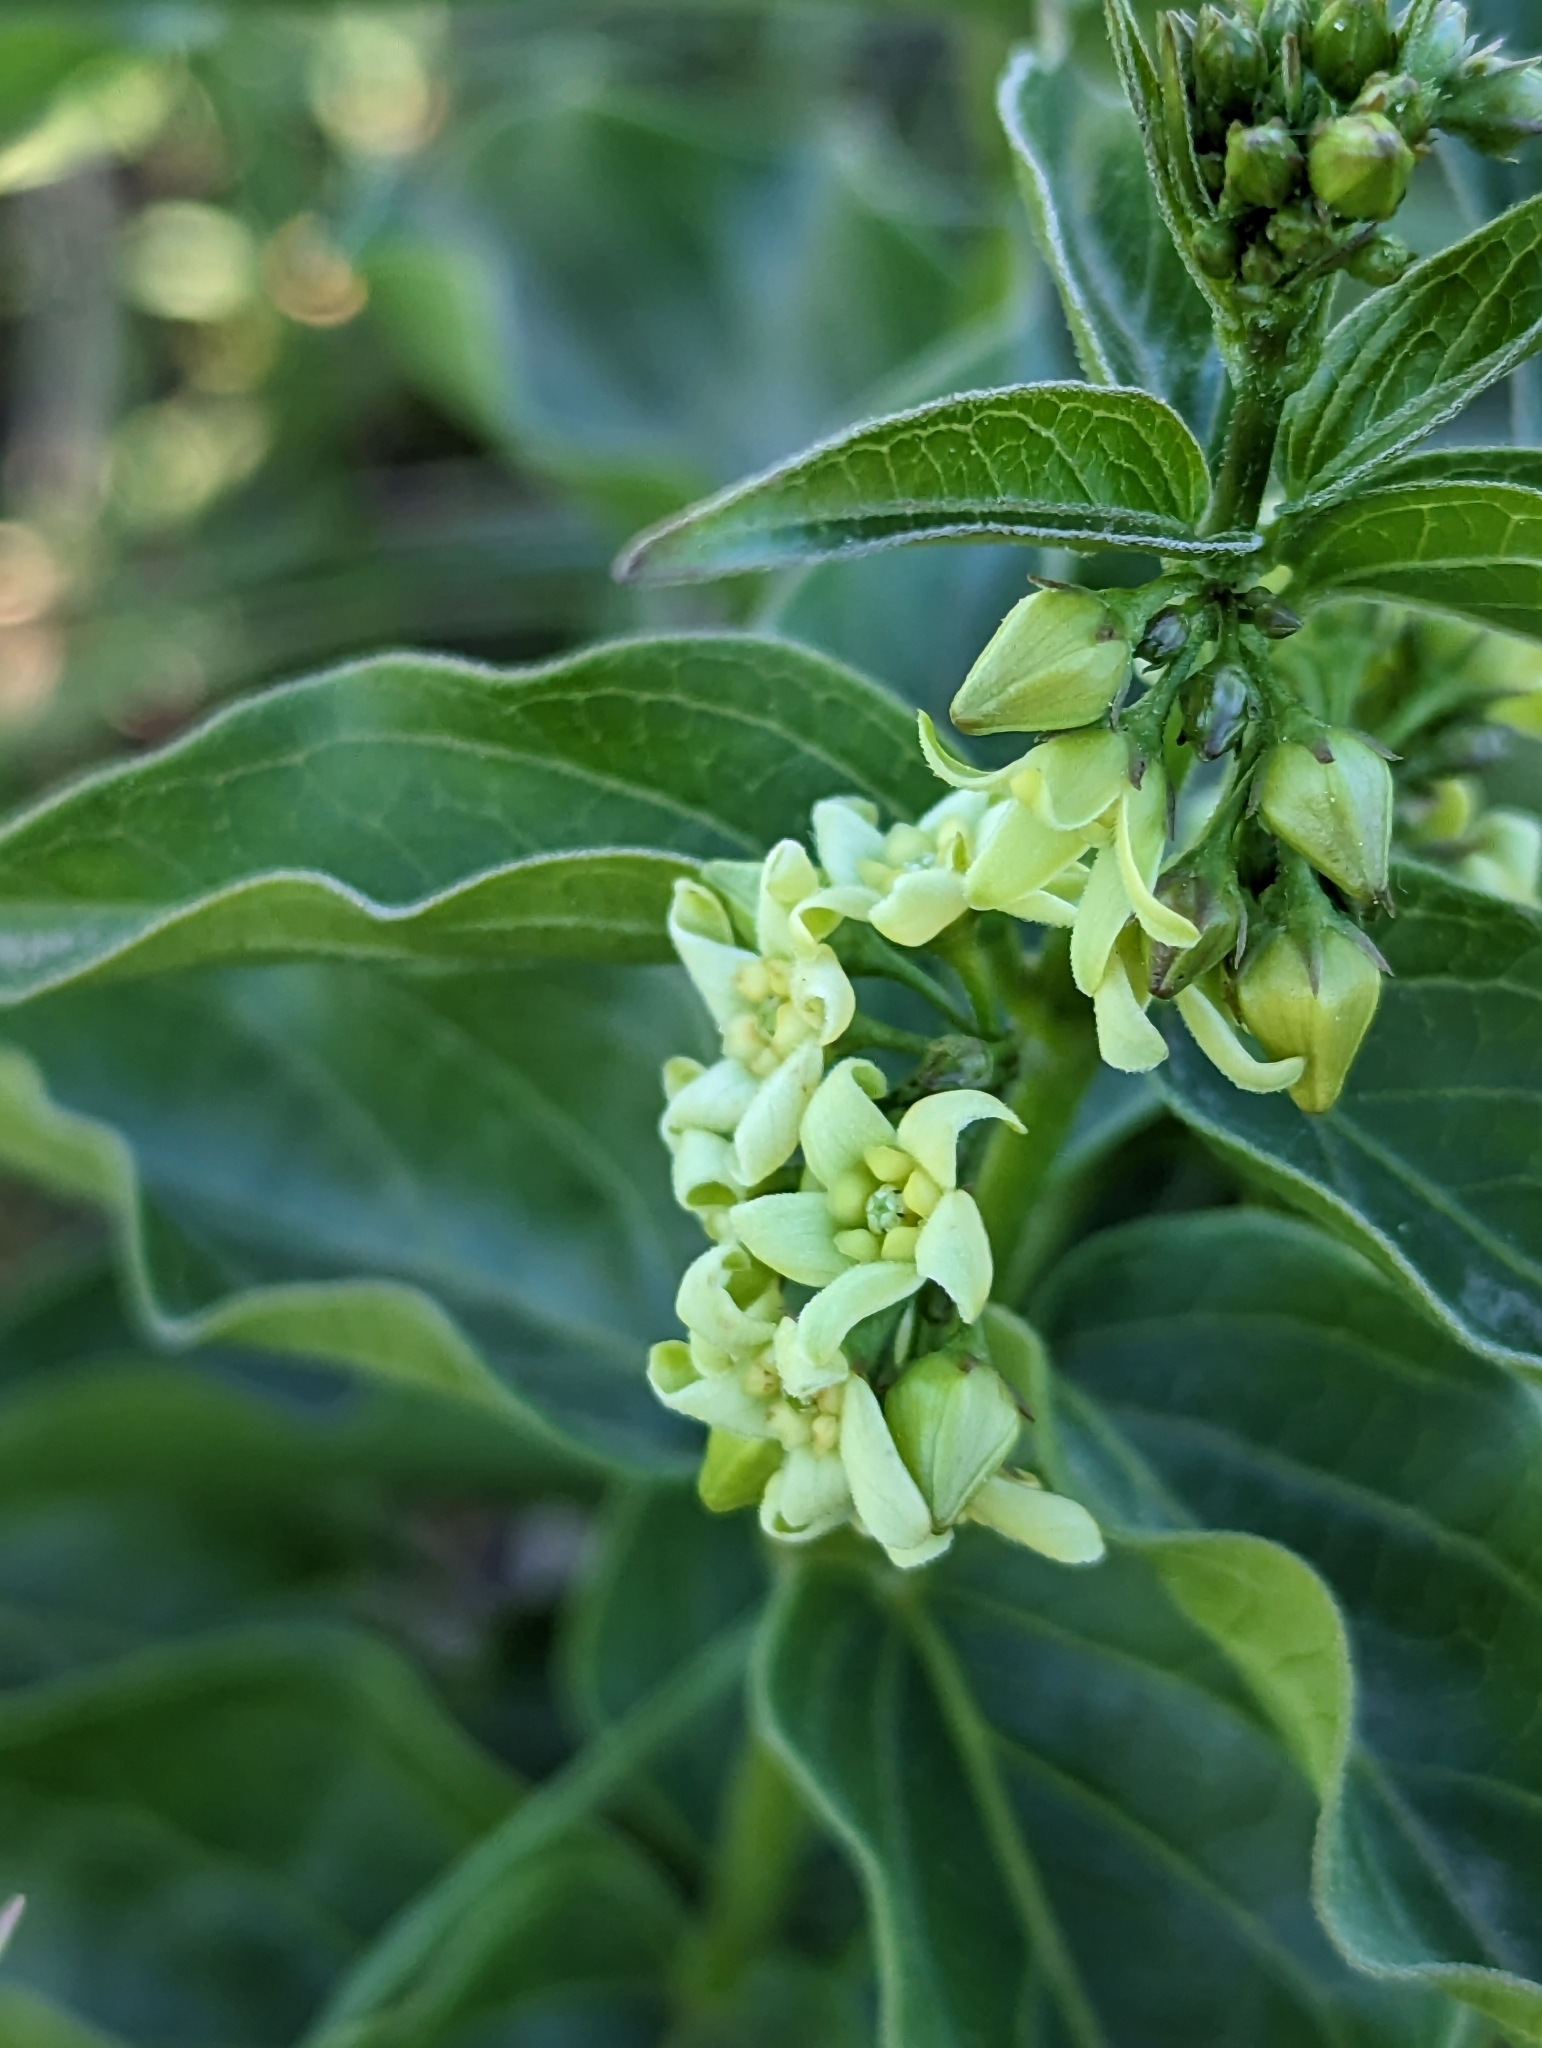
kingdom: Plantae
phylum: Tracheophyta
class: Magnoliopsida
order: Gentianales
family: Apocynaceae
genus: Vincetoxicum
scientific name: Vincetoxicum hirundinaria
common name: White swallowwort
